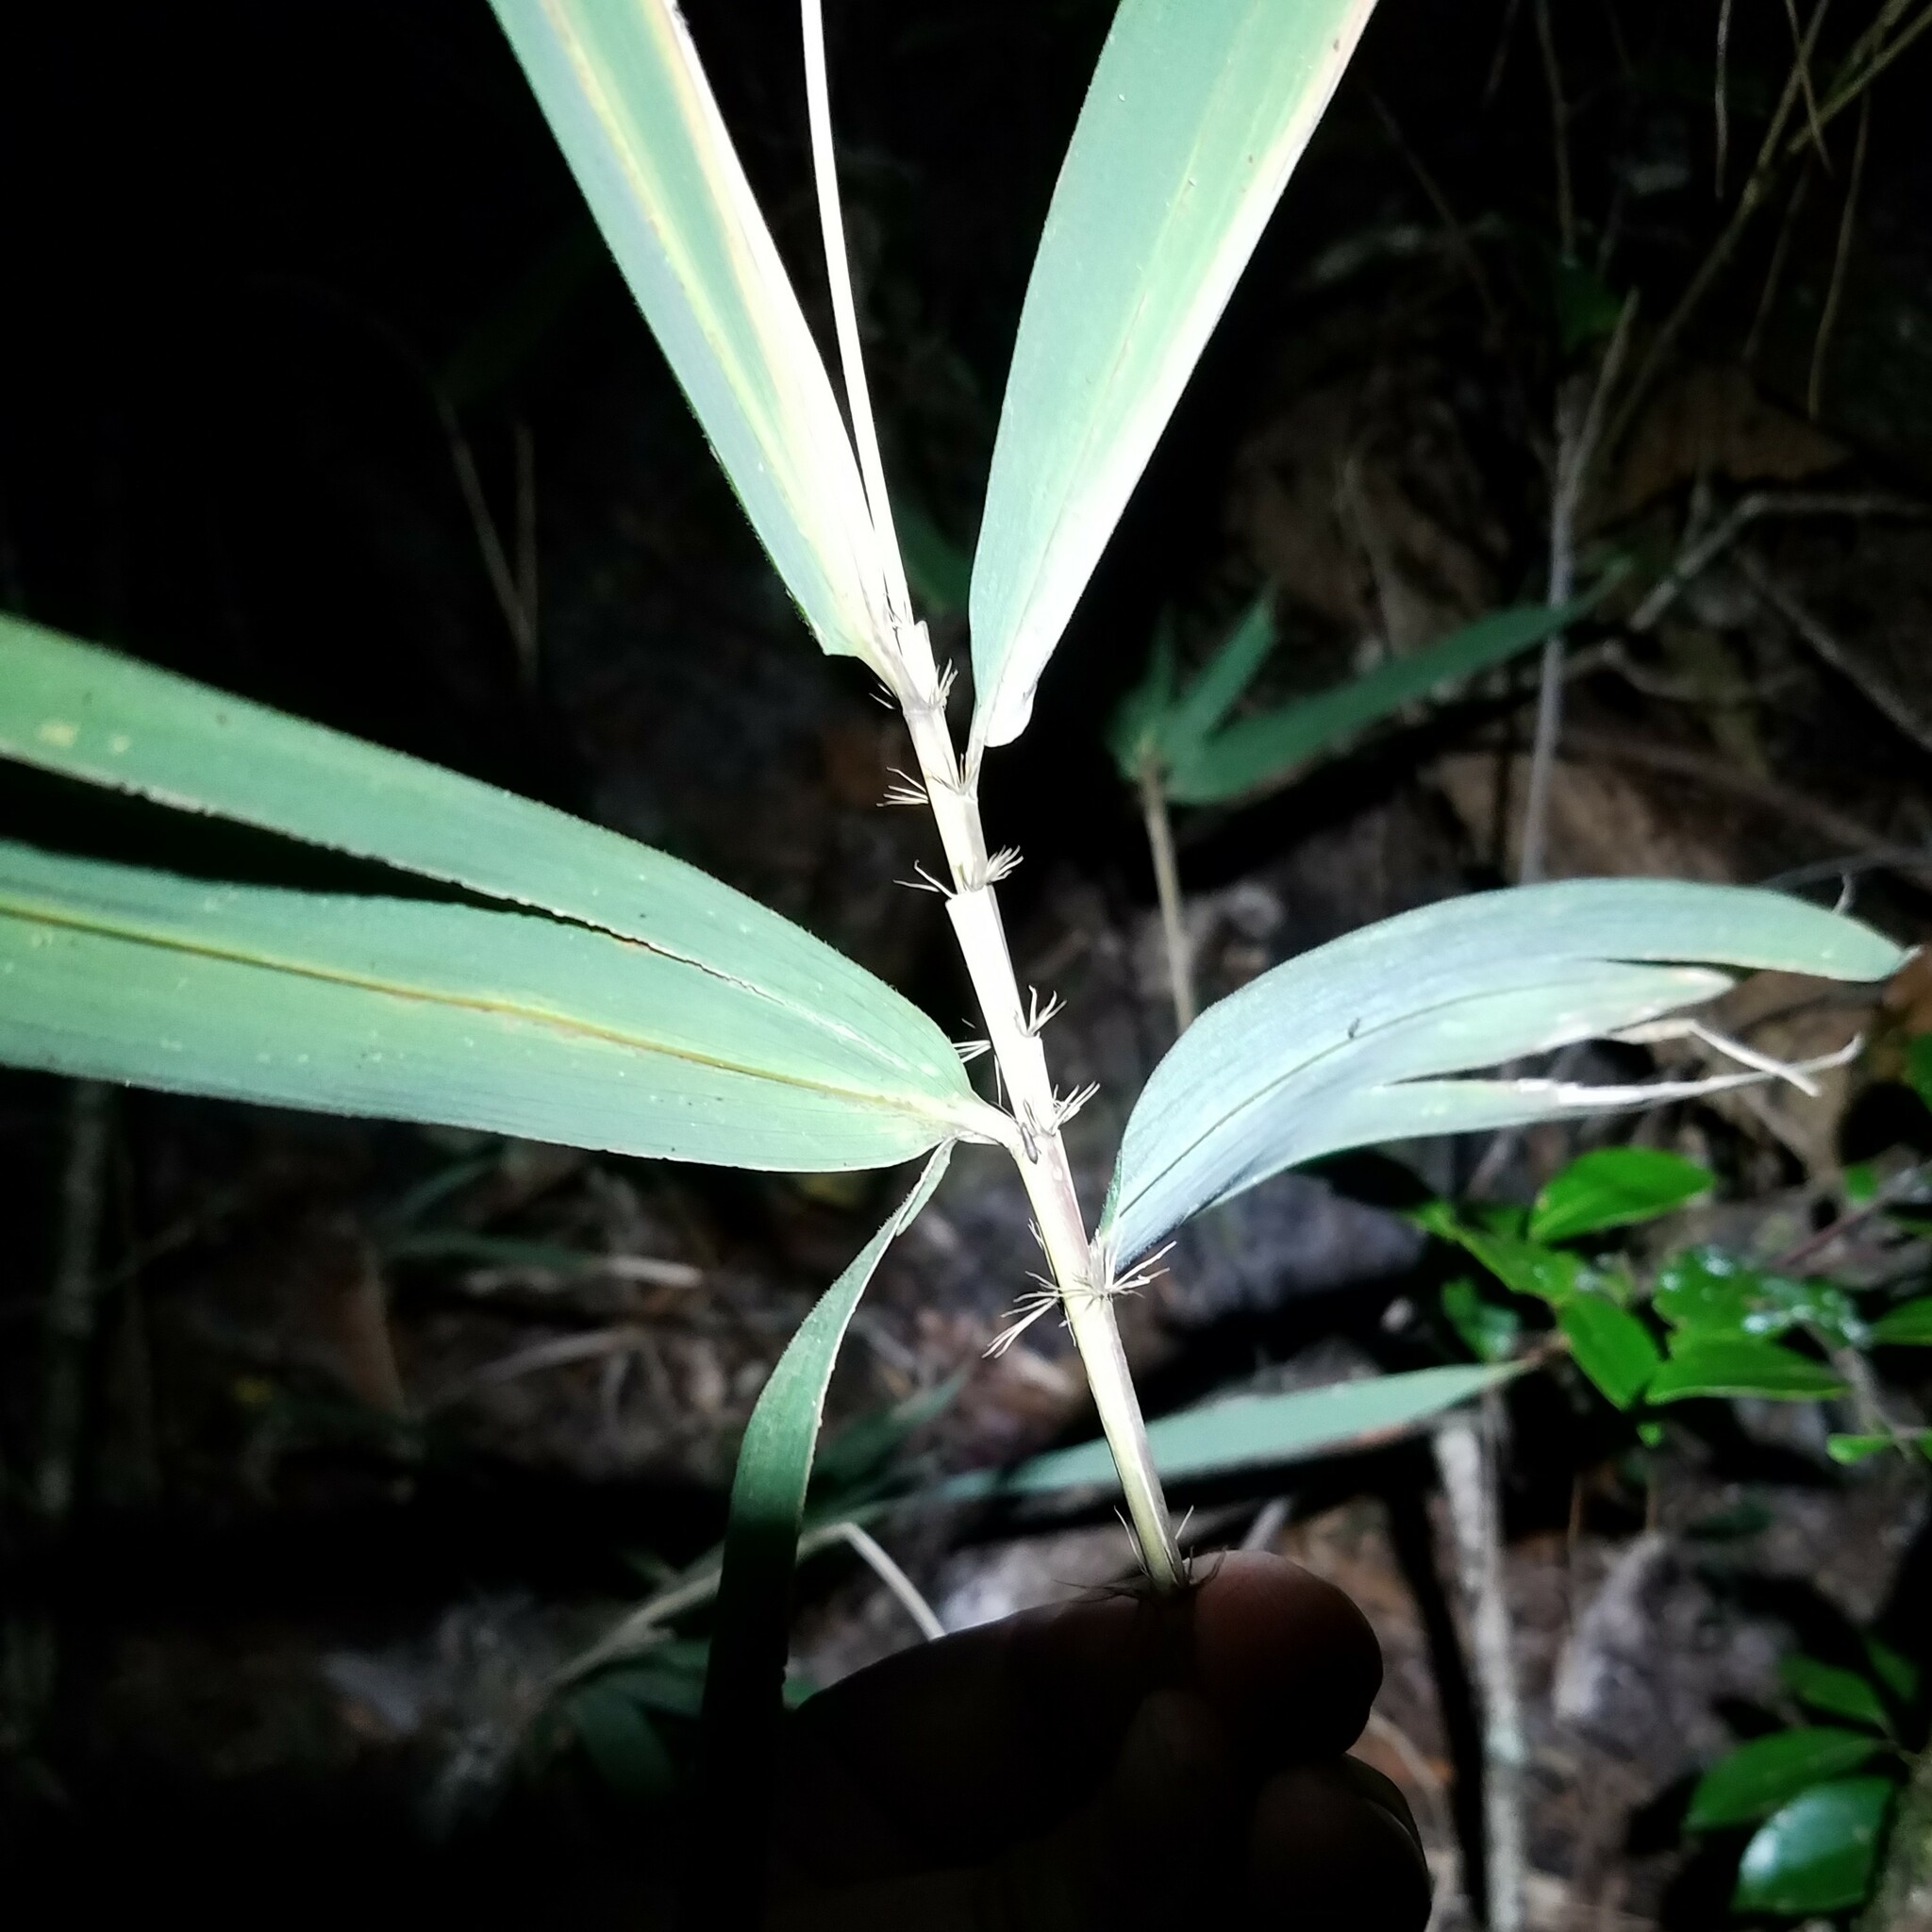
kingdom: Plantae
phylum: Tracheophyta
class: Liliopsida
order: Poales
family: Poaceae
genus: Arundinaria
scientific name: Arundinaria tecta
